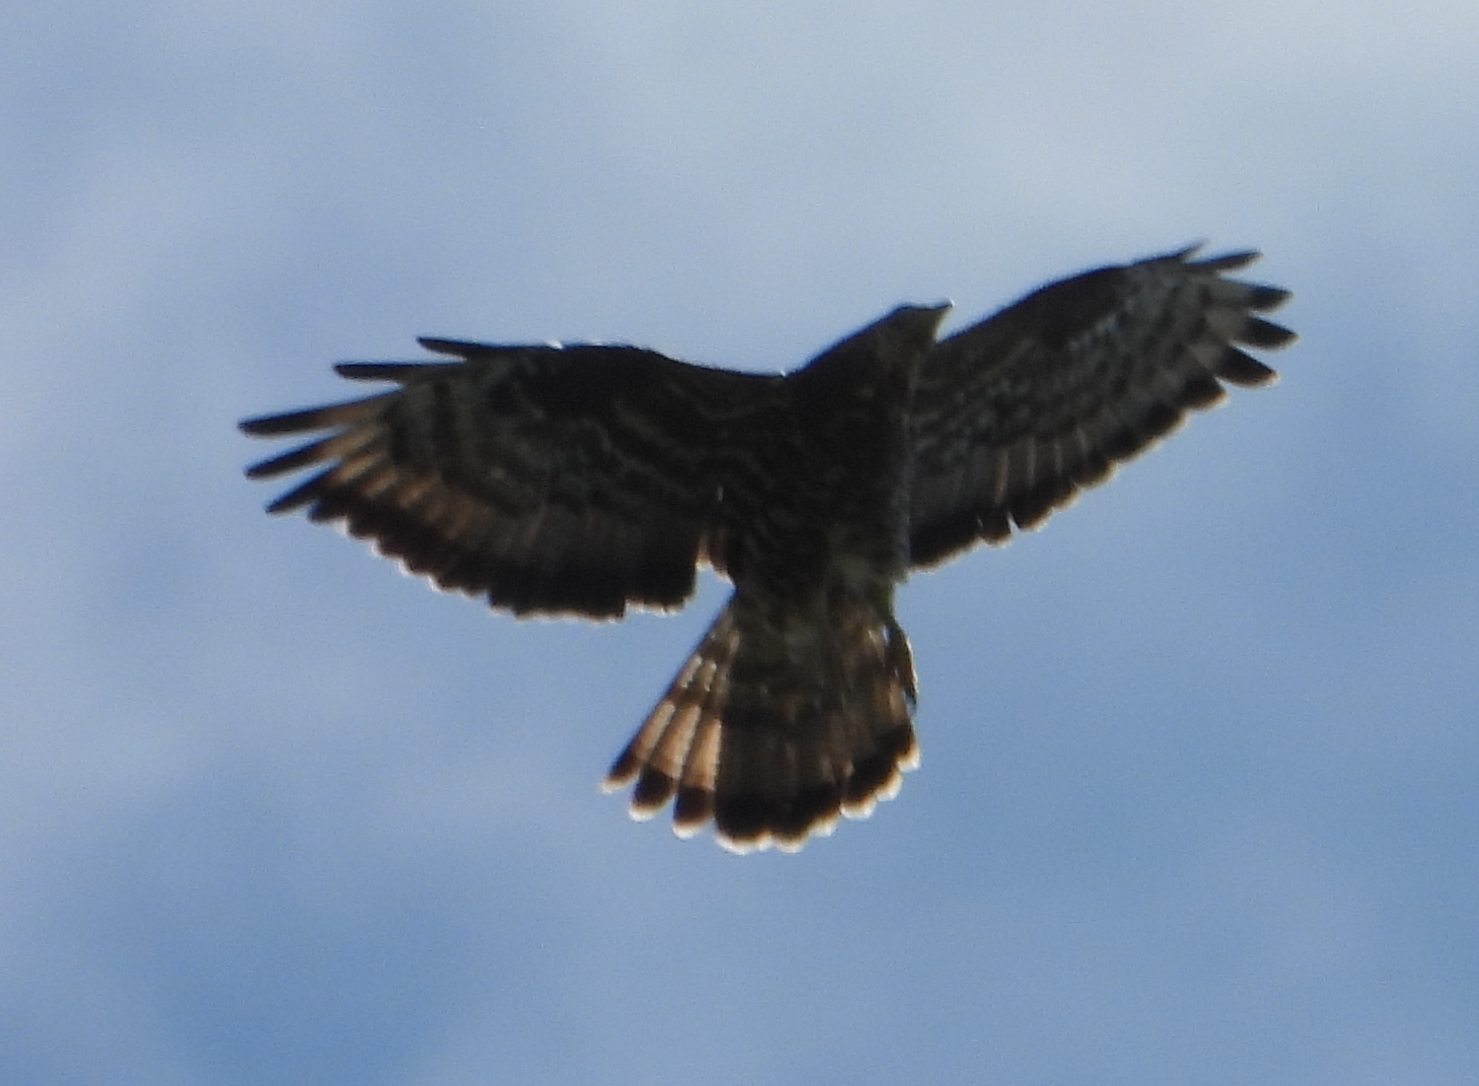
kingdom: Animalia
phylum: Chordata
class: Aves
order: Accipitriformes
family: Accipitridae
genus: Pernis
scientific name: Pernis apivorus
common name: European honey buzzard
